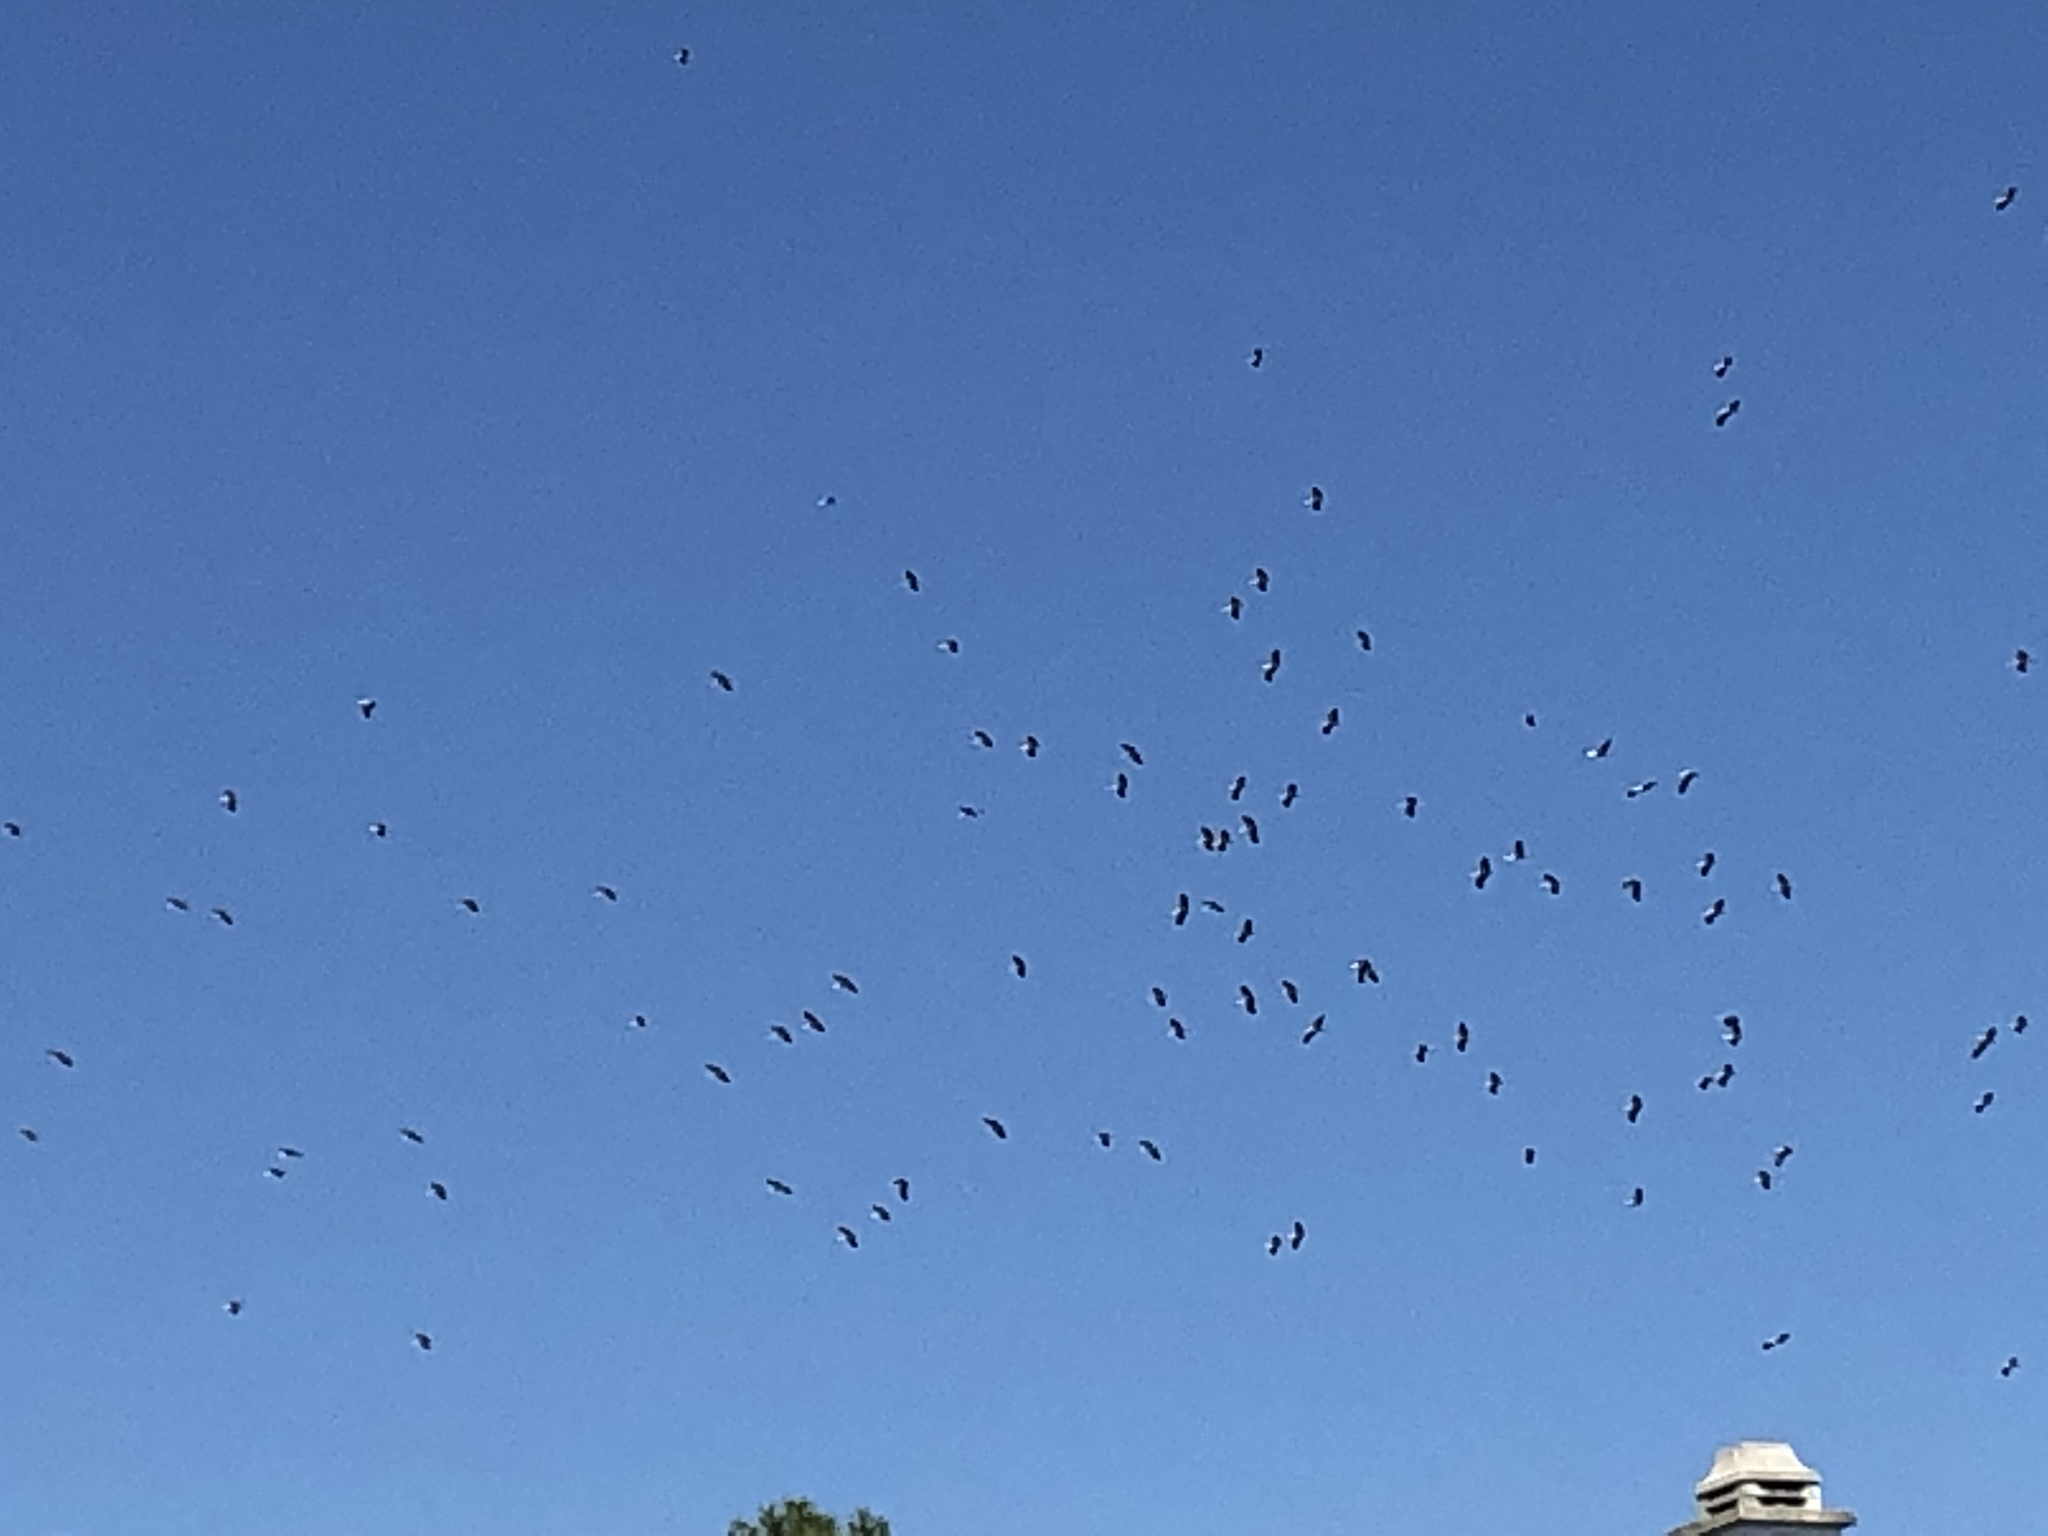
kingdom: Animalia
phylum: Chordata
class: Aves
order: Ciconiiformes
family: Ciconiidae
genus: Ciconia
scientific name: Ciconia ciconia
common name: White stork
